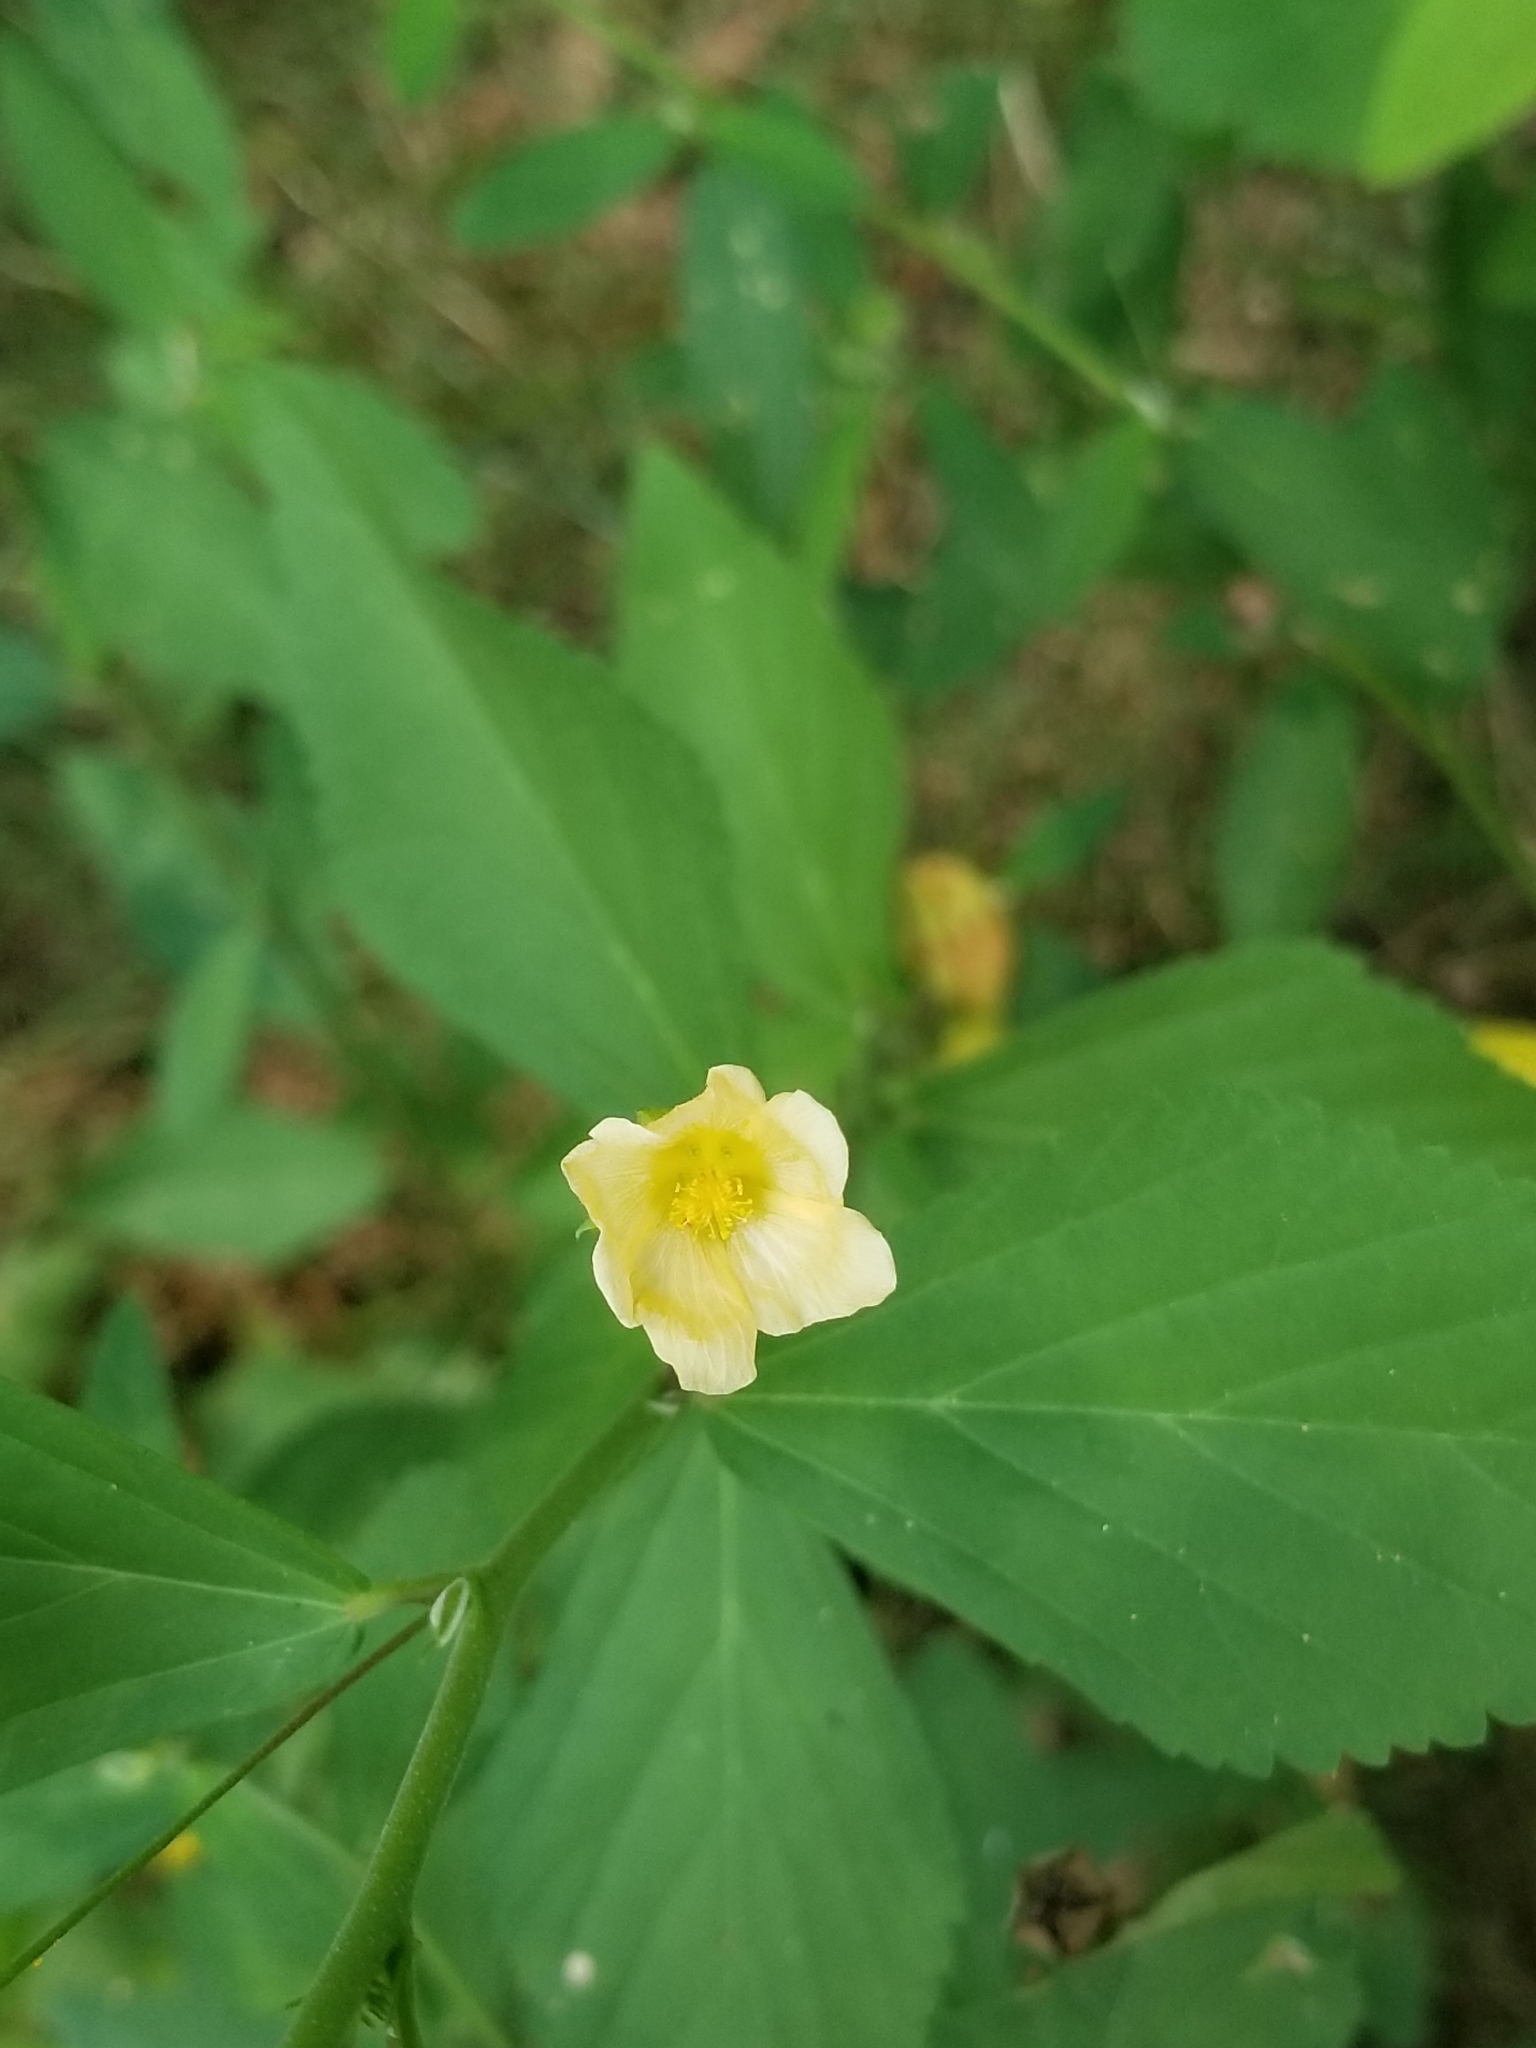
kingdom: Plantae
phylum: Tracheophyta
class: Magnoliopsida
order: Malvales
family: Malvaceae
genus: Sida
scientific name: Sida rhombifolia
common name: Queensland-hemp
